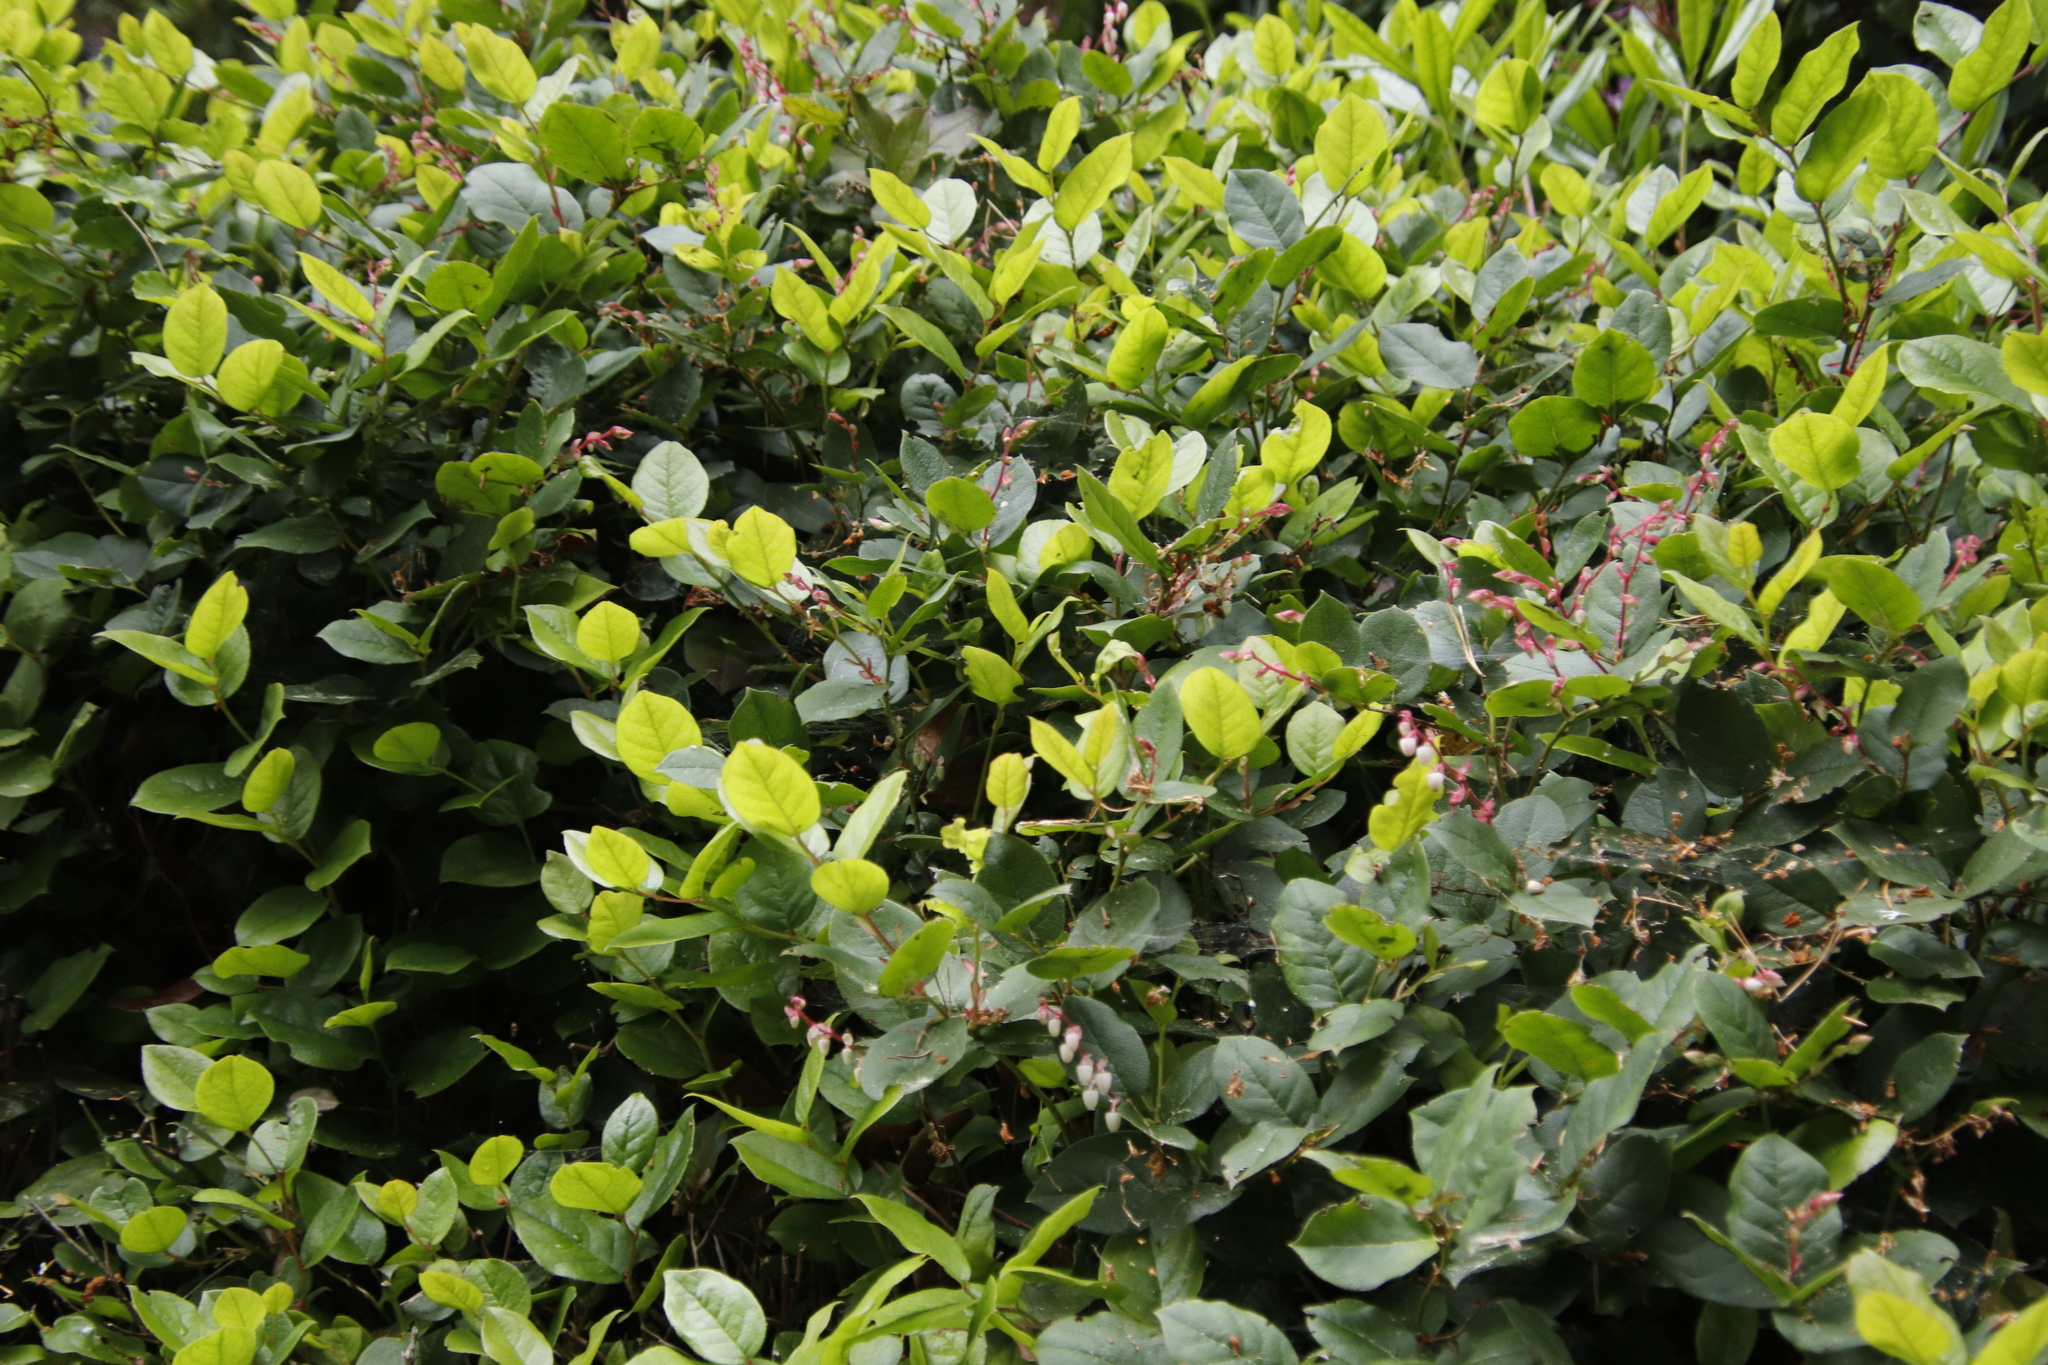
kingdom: Plantae
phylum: Tracheophyta
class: Magnoliopsida
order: Ericales
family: Ericaceae
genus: Gaultheria
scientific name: Gaultheria shallon
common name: Shallon
